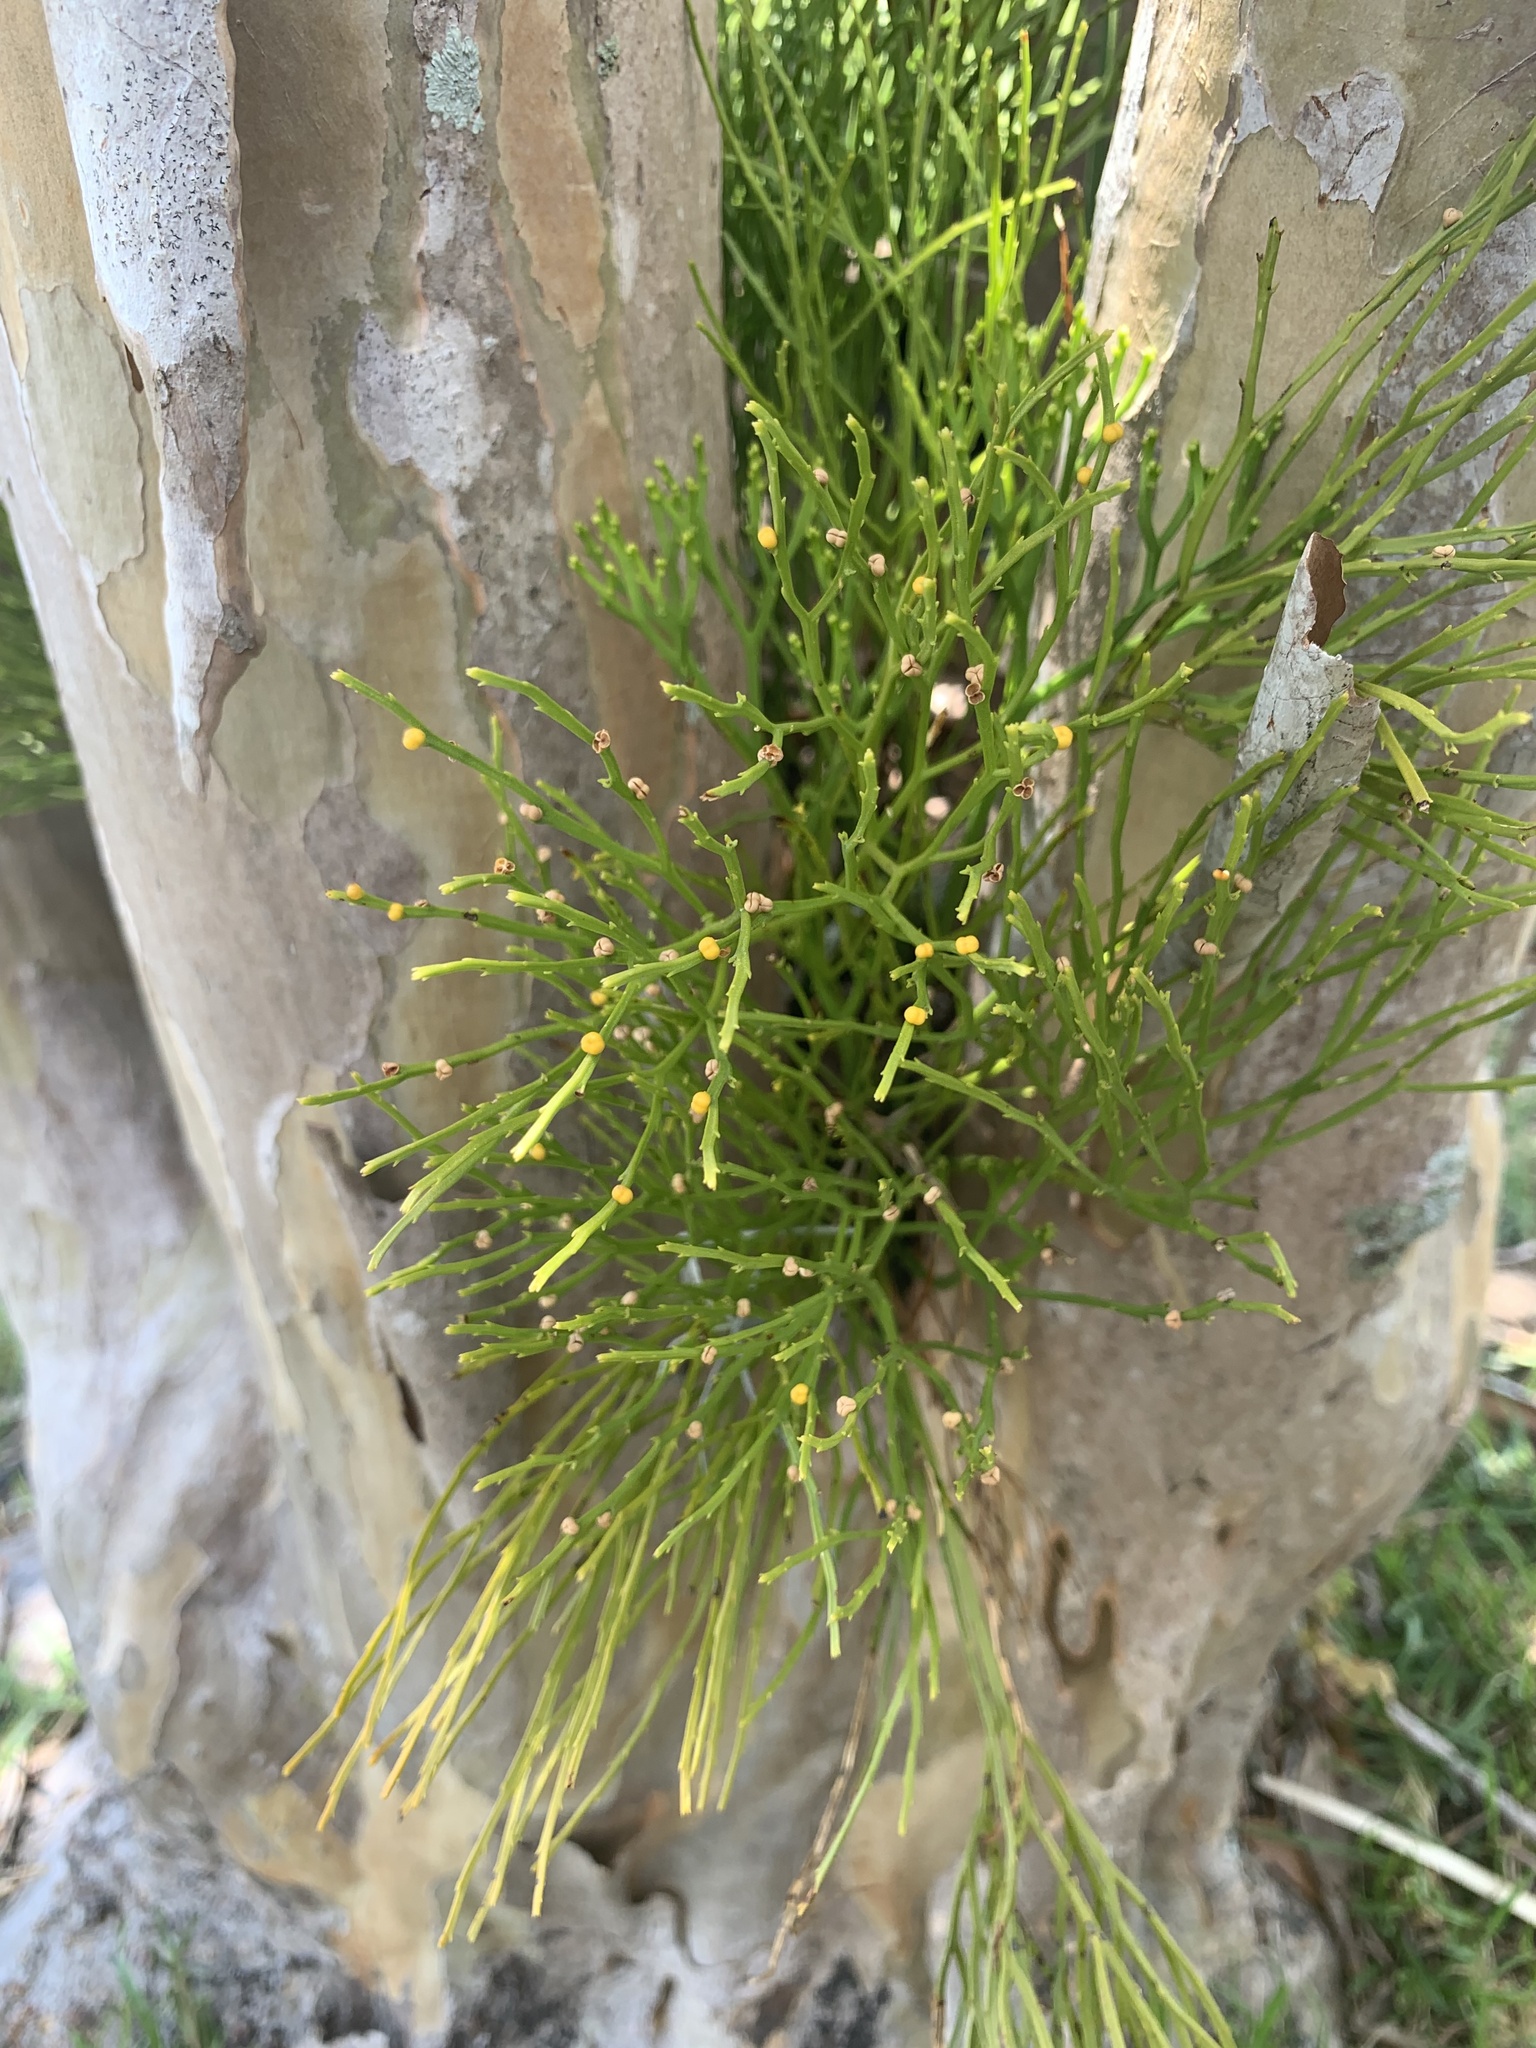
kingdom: Plantae
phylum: Tracheophyta
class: Polypodiopsida
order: Psilotales
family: Psilotaceae
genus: Psilotum
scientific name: Psilotum nudum
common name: Skeleton fork fern
